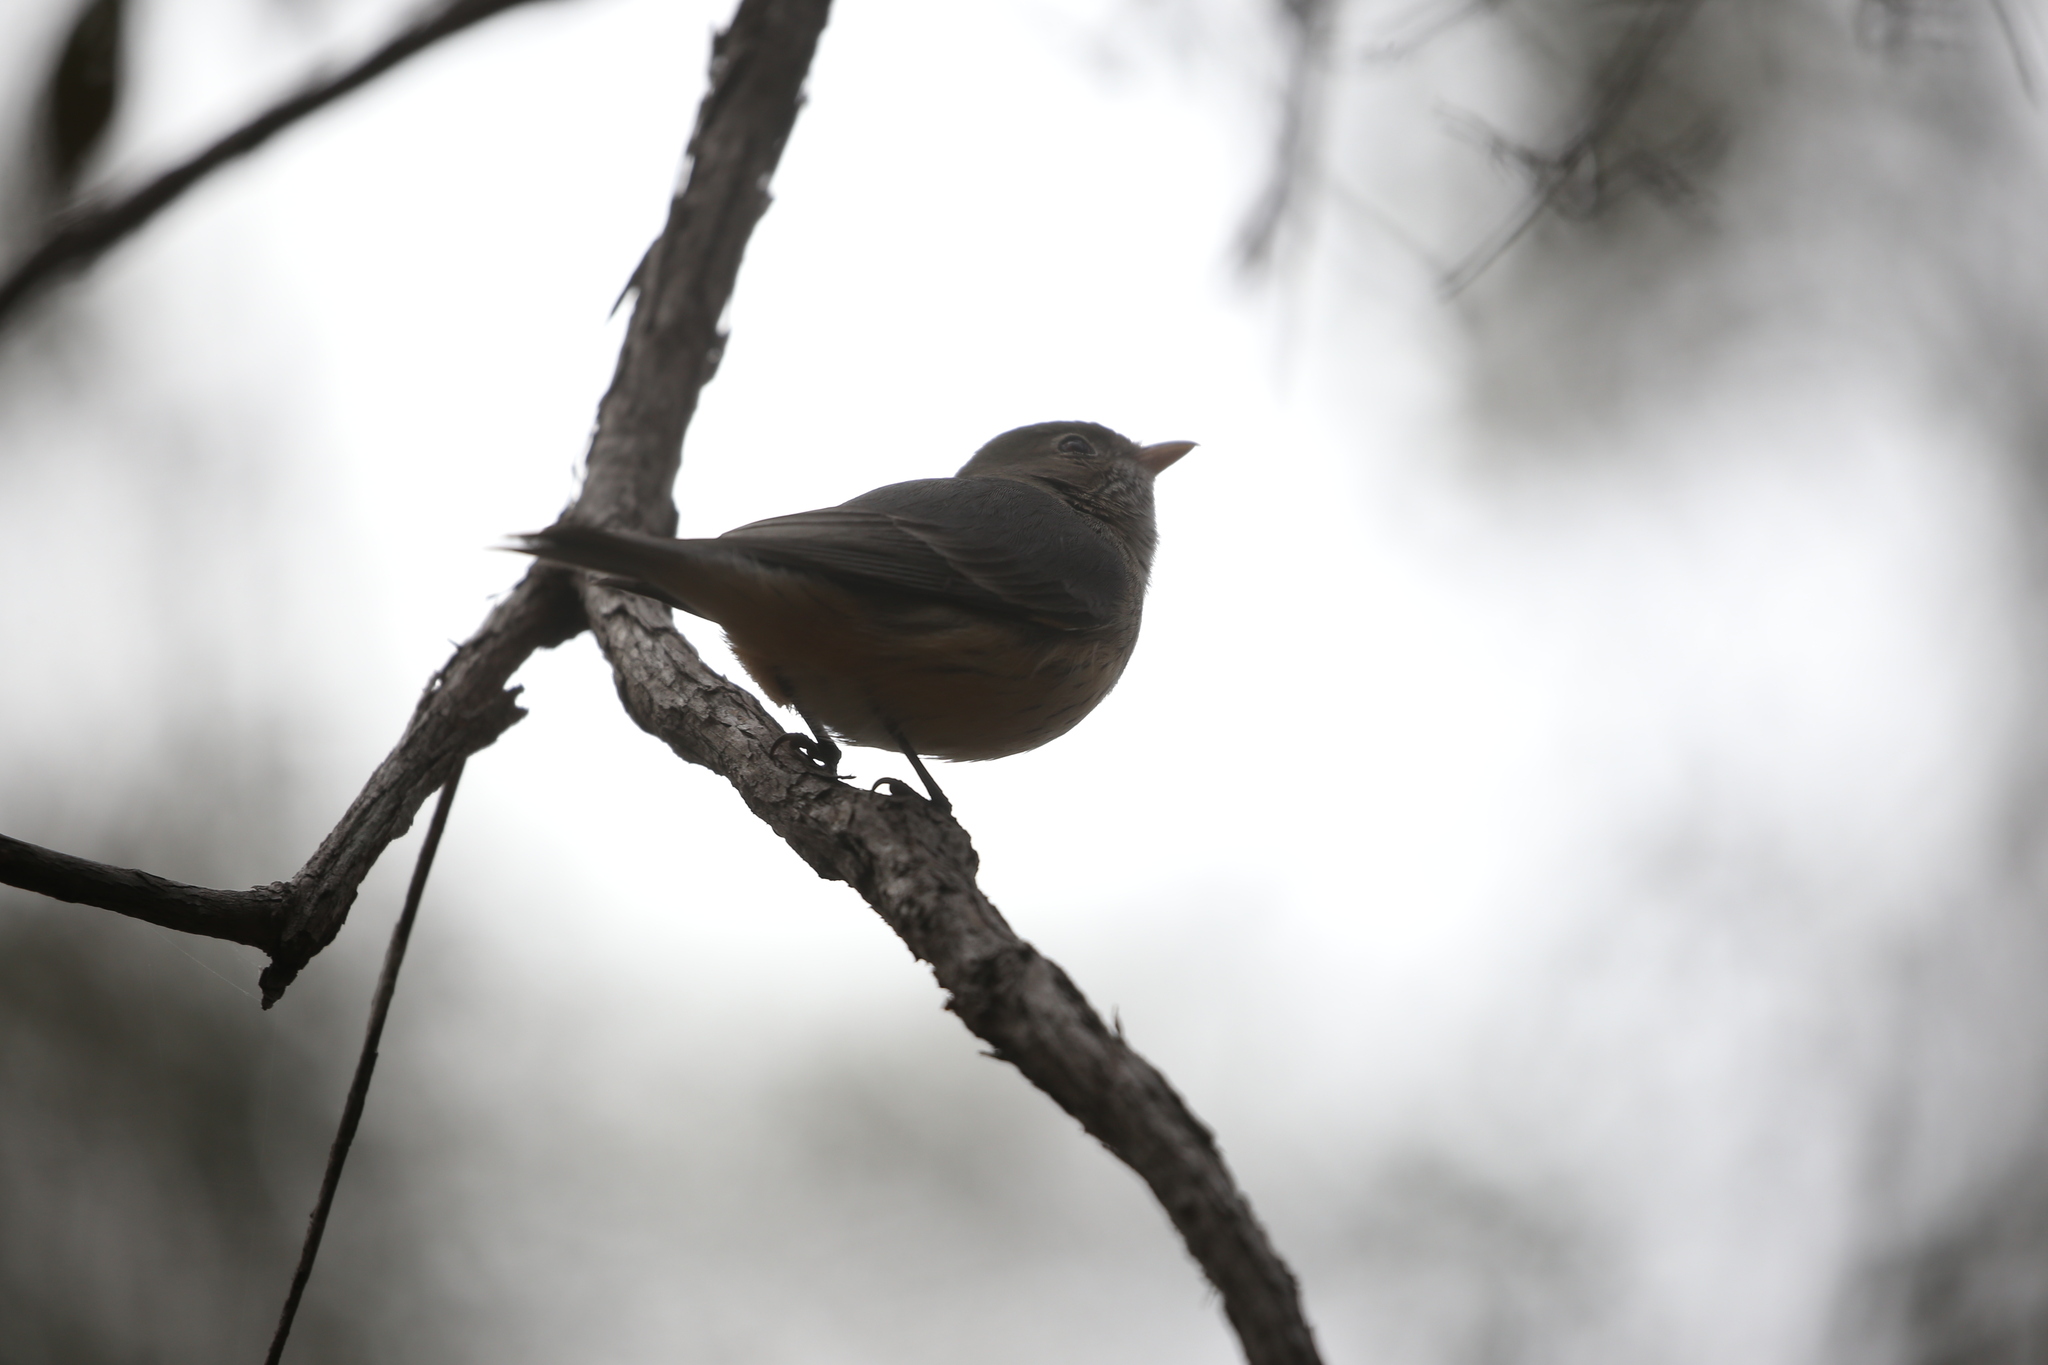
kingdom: Animalia
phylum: Chordata
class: Aves
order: Passeriformes
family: Pachycephalidae
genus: Pachycephala
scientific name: Pachycephala rufiventris
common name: Rufous whistler
